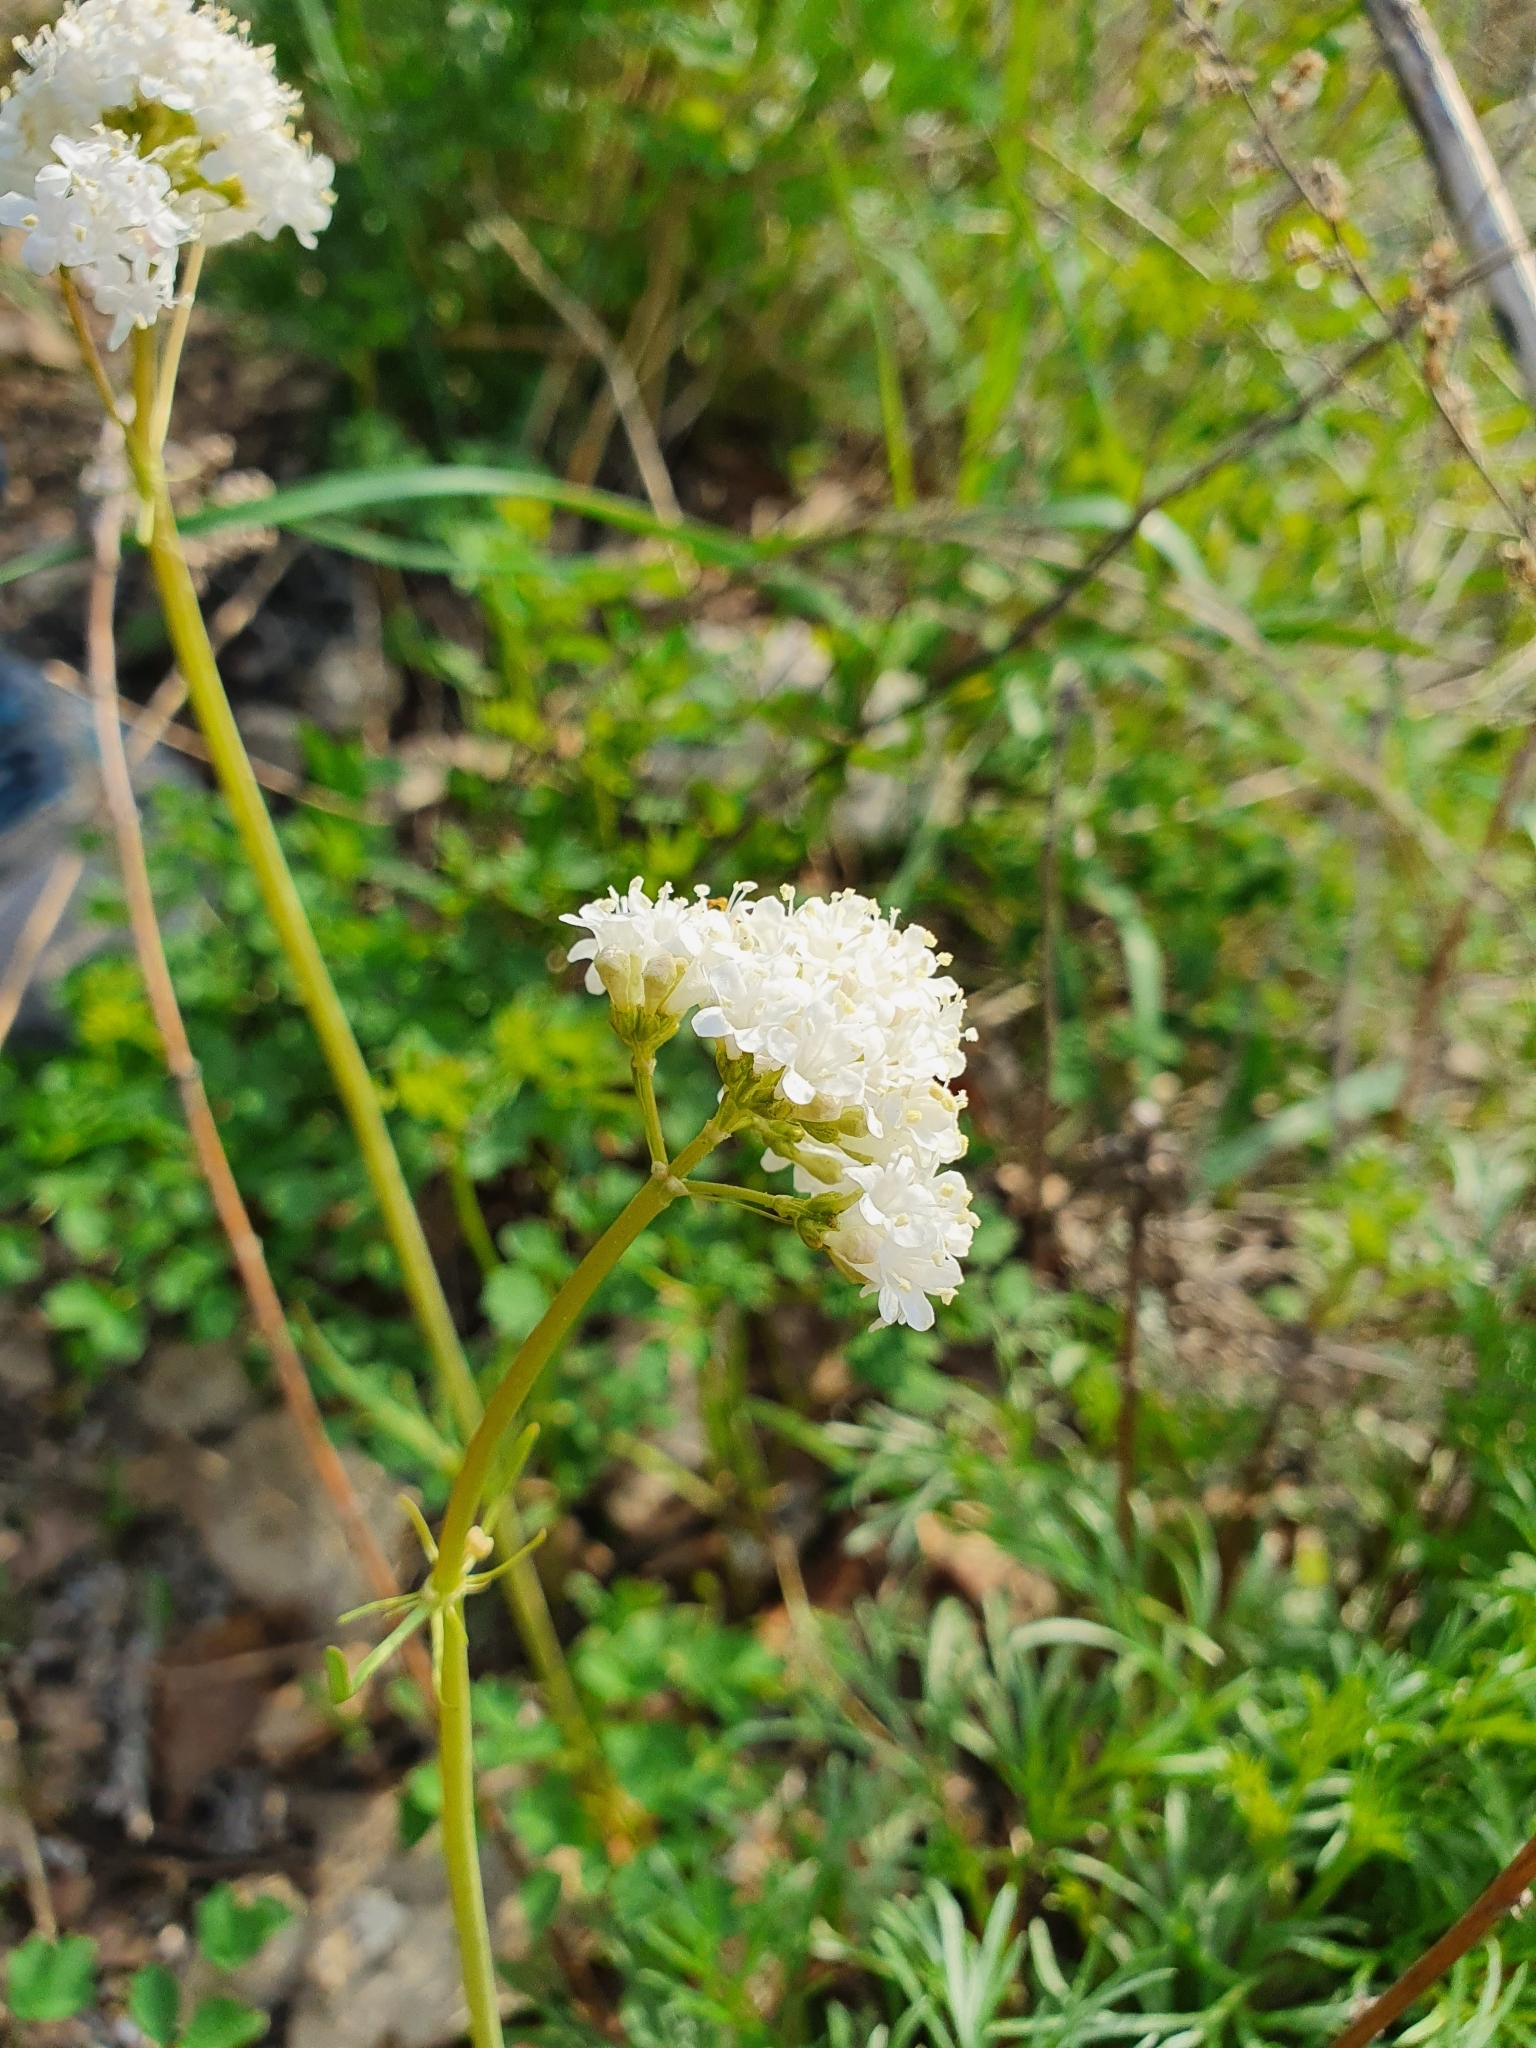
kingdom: Plantae
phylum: Tracheophyta
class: Magnoliopsida
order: Dipsacales
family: Caprifoliaceae
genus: Valeriana
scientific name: Valeriana tuberosa
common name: Tuberous valerian
